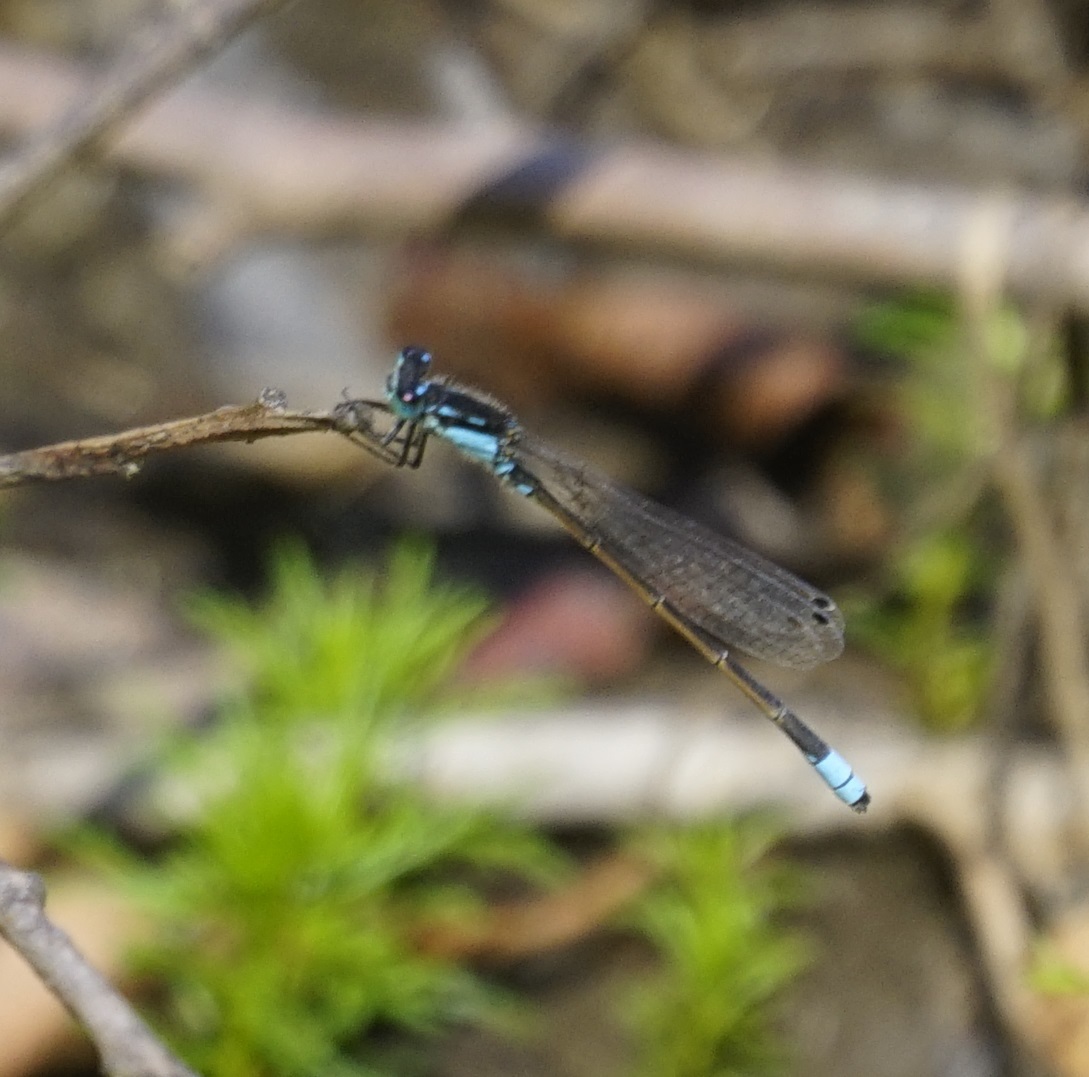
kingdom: Animalia
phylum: Arthropoda
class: Insecta
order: Odonata
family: Coenagrionidae
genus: Ischnura
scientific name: Ischnura heterosticta
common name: Common bluetail
